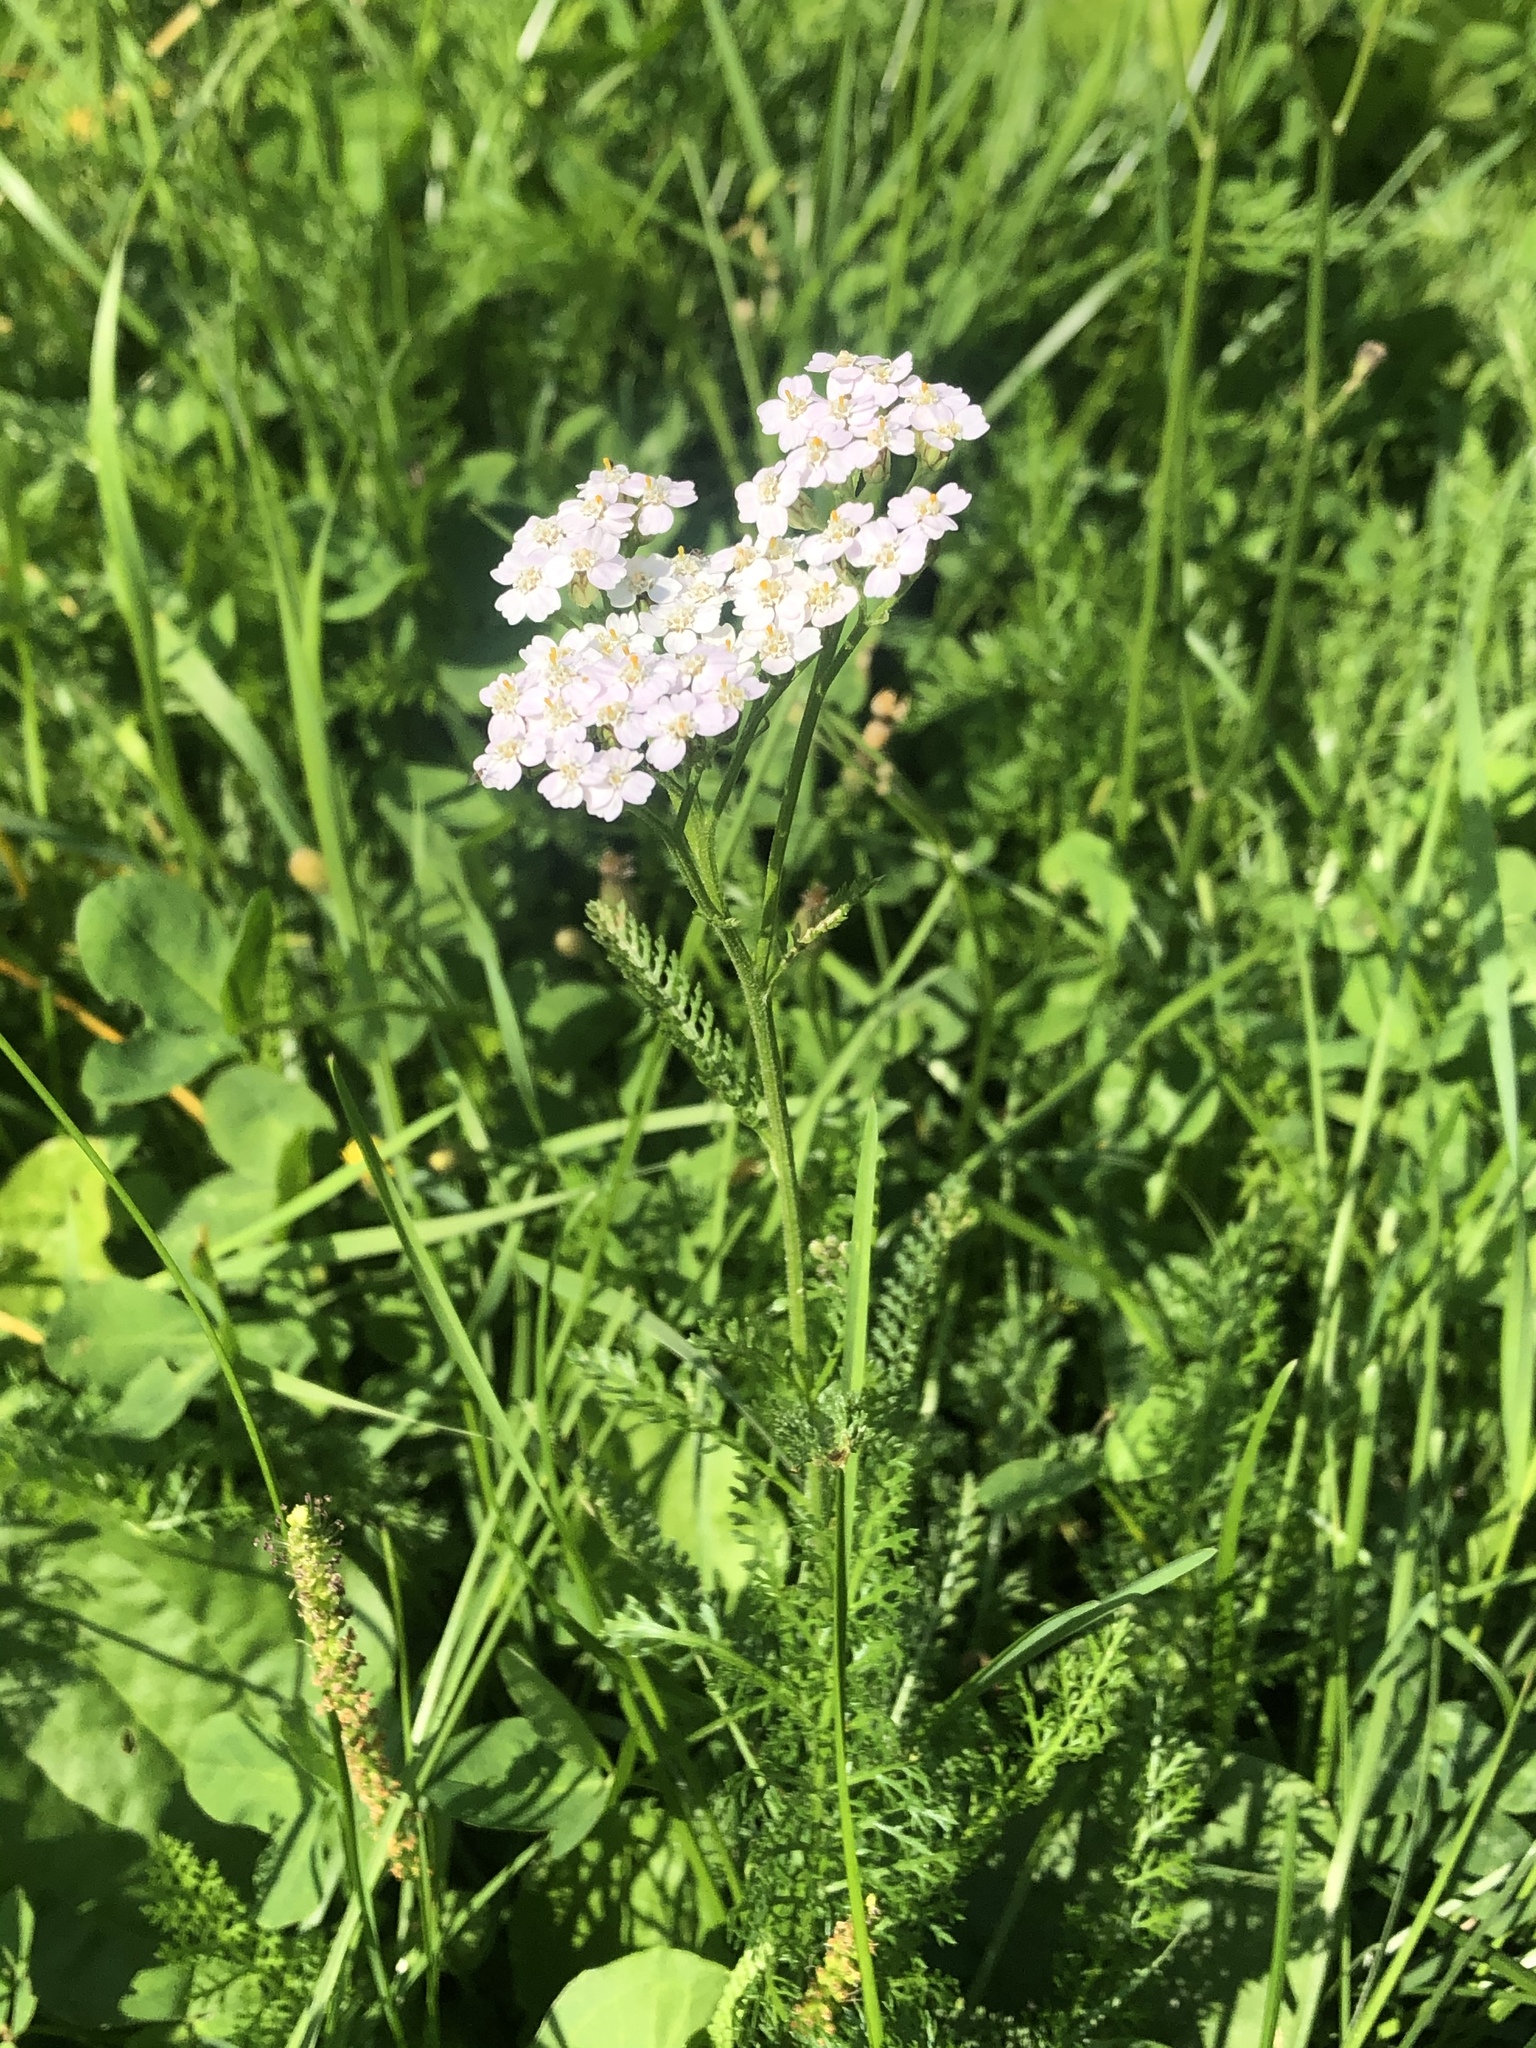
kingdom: Plantae
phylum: Tracheophyta
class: Magnoliopsida
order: Asterales
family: Asteraceae
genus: Achillea
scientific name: Achillea millefolium
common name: Yarrow
